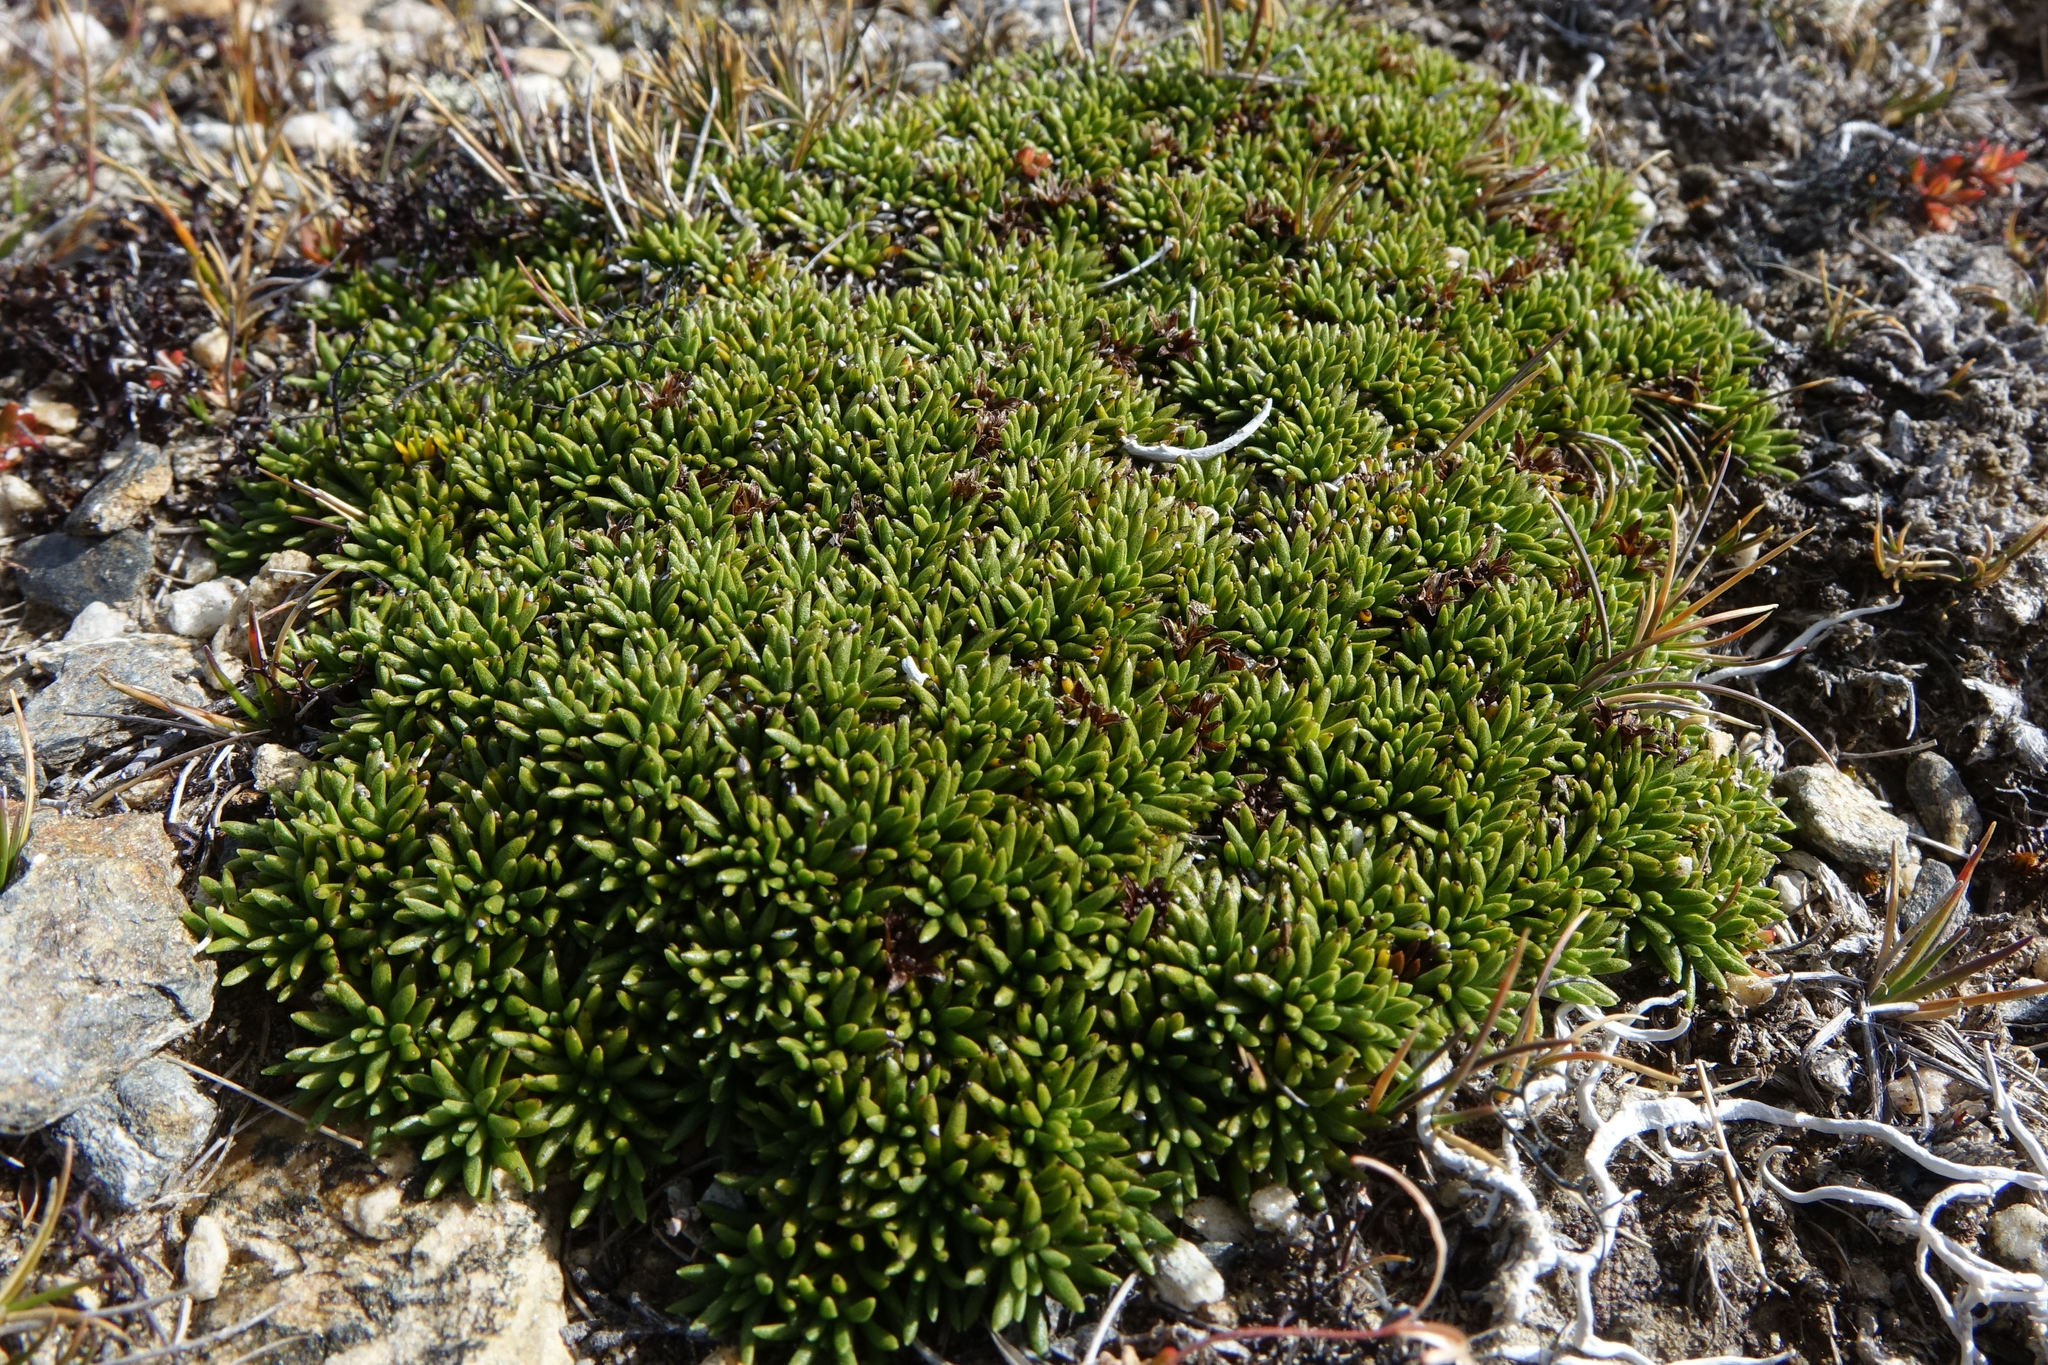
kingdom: Plantae
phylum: Tracheophyta
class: Magnoliopsida
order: Asterales
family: Asteraceae
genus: Abrotanella
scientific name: Abrotanella inconspicua
